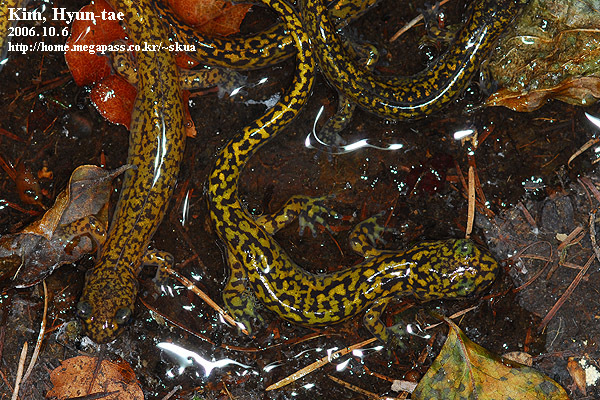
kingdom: Animalia
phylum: Chordata
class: Amphibia
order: Caudata
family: Hynobiidae
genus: Onychodactylus
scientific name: Onychodactylus koreanus
